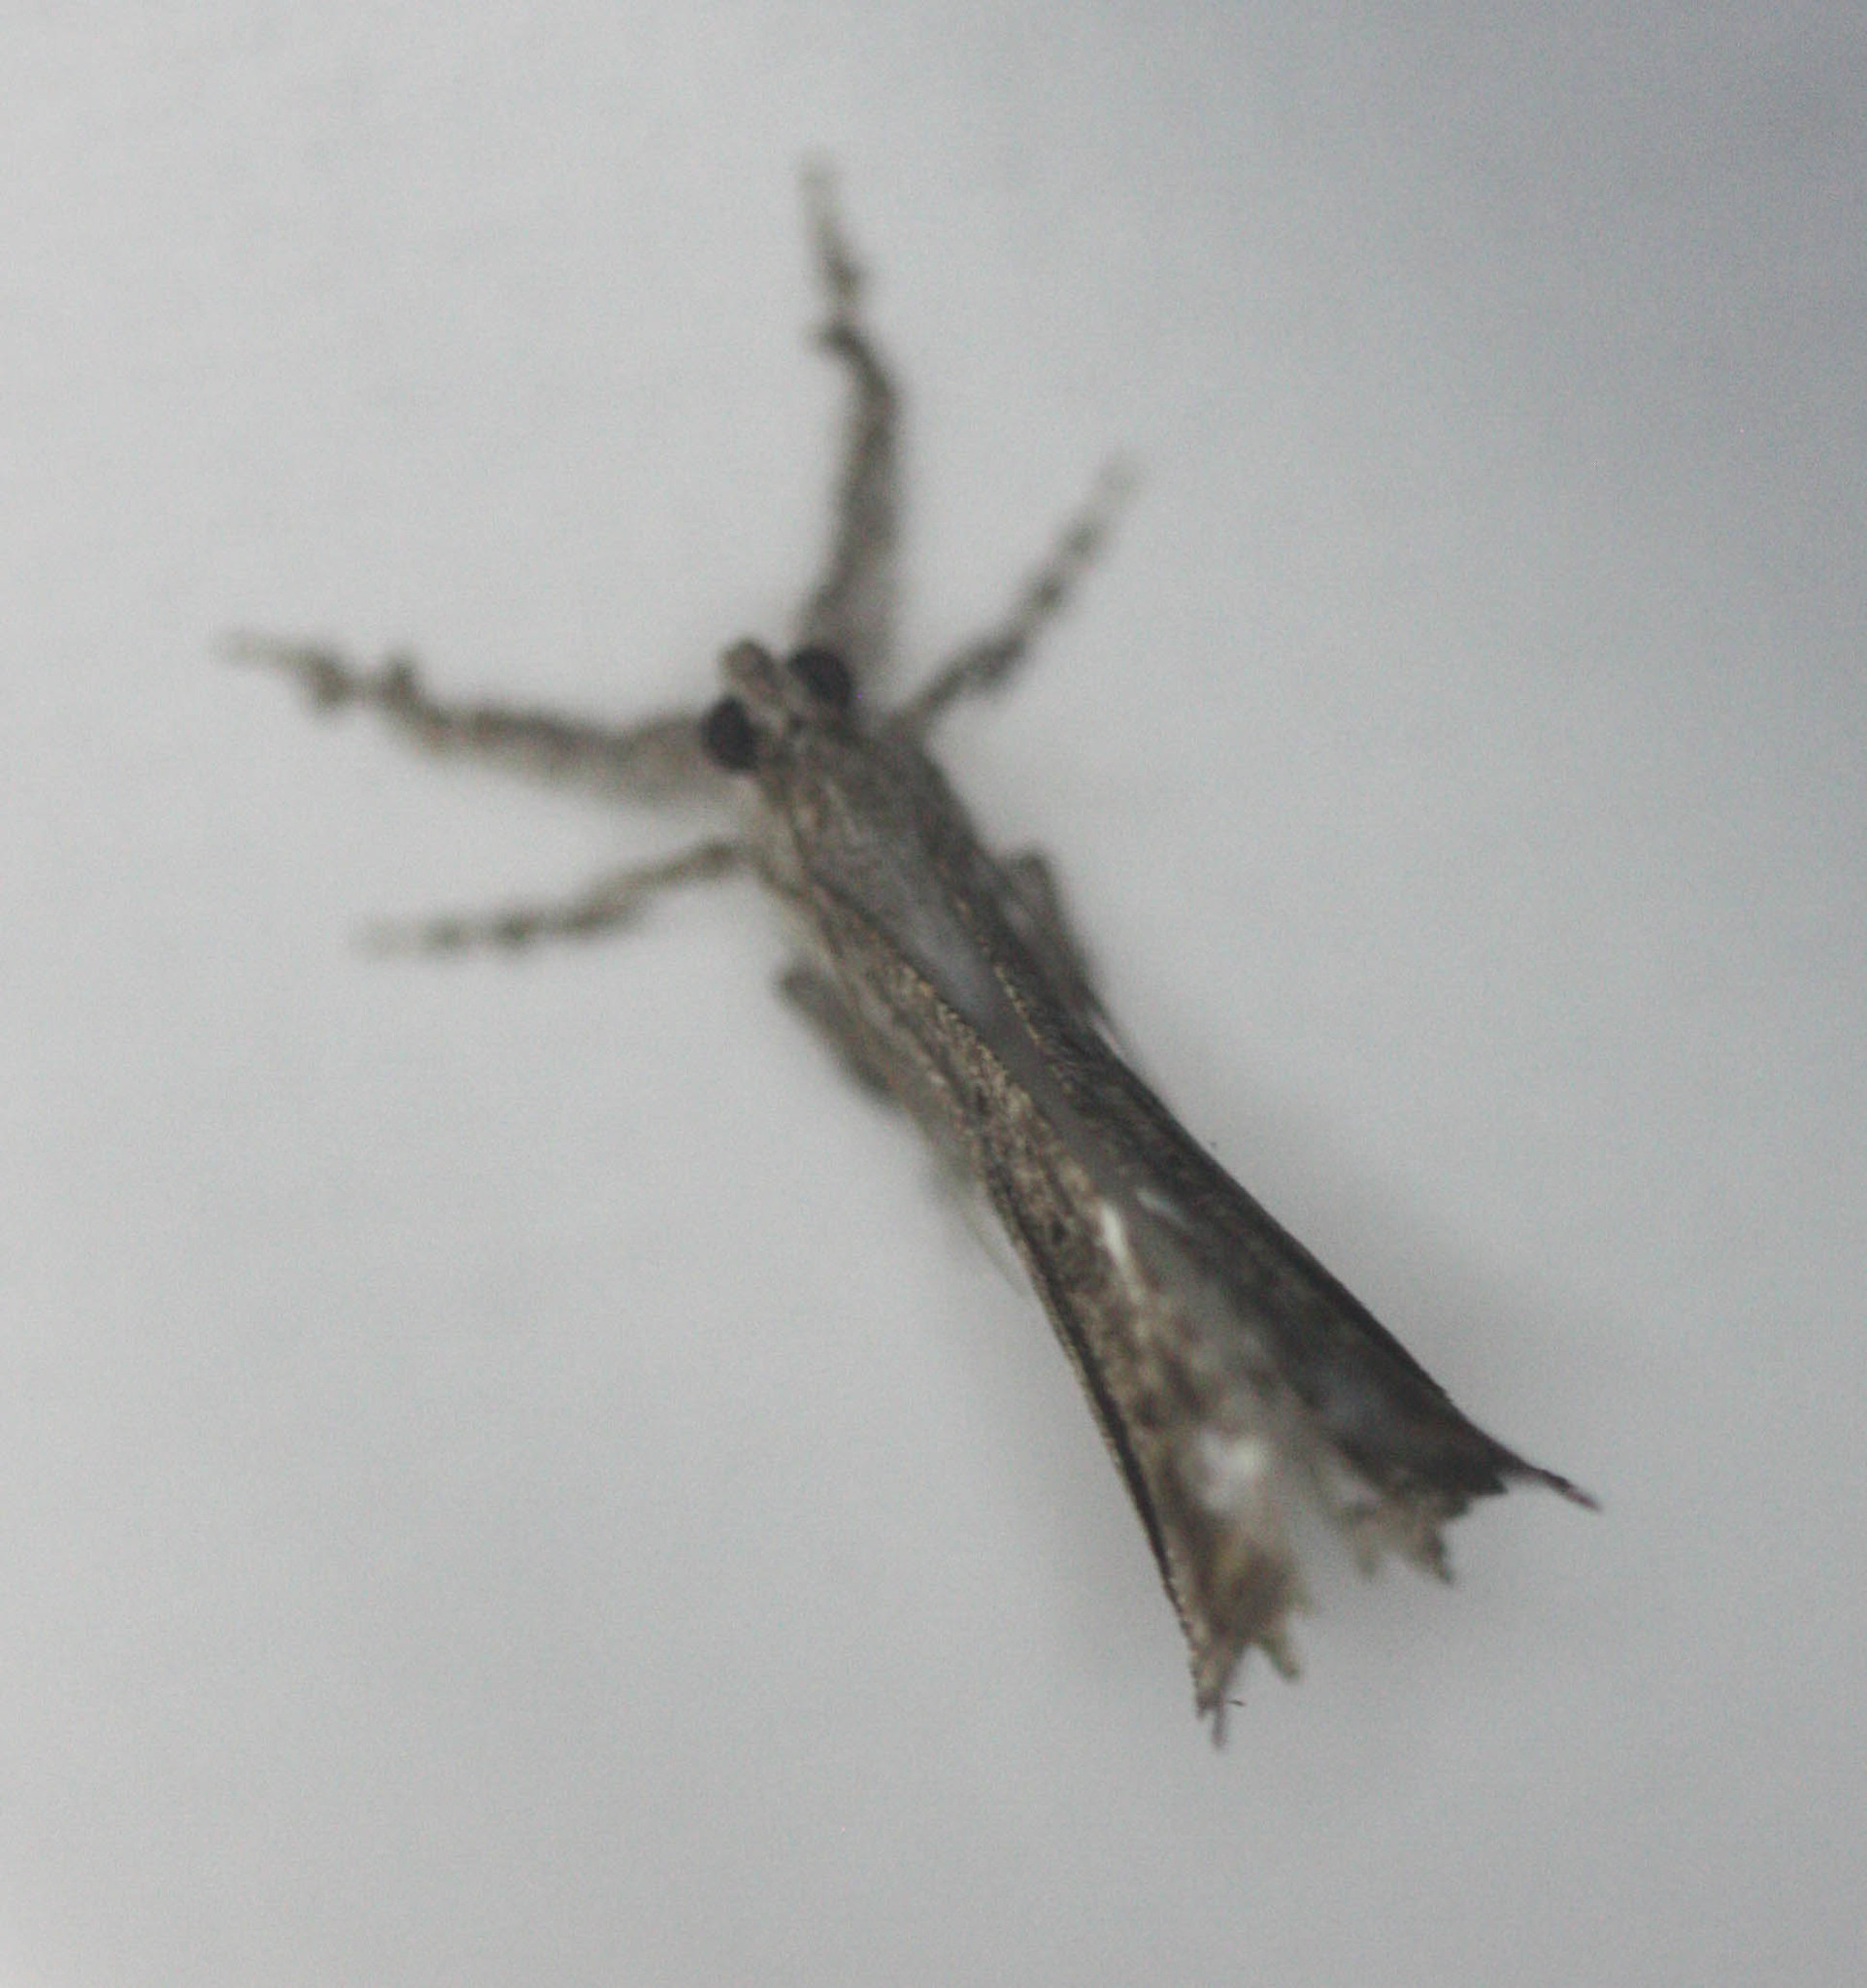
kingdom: Animalia
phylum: Arthropoda
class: Insecta
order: Lepidoptera
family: Erebidae
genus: Masca
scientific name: Masca abactalis
